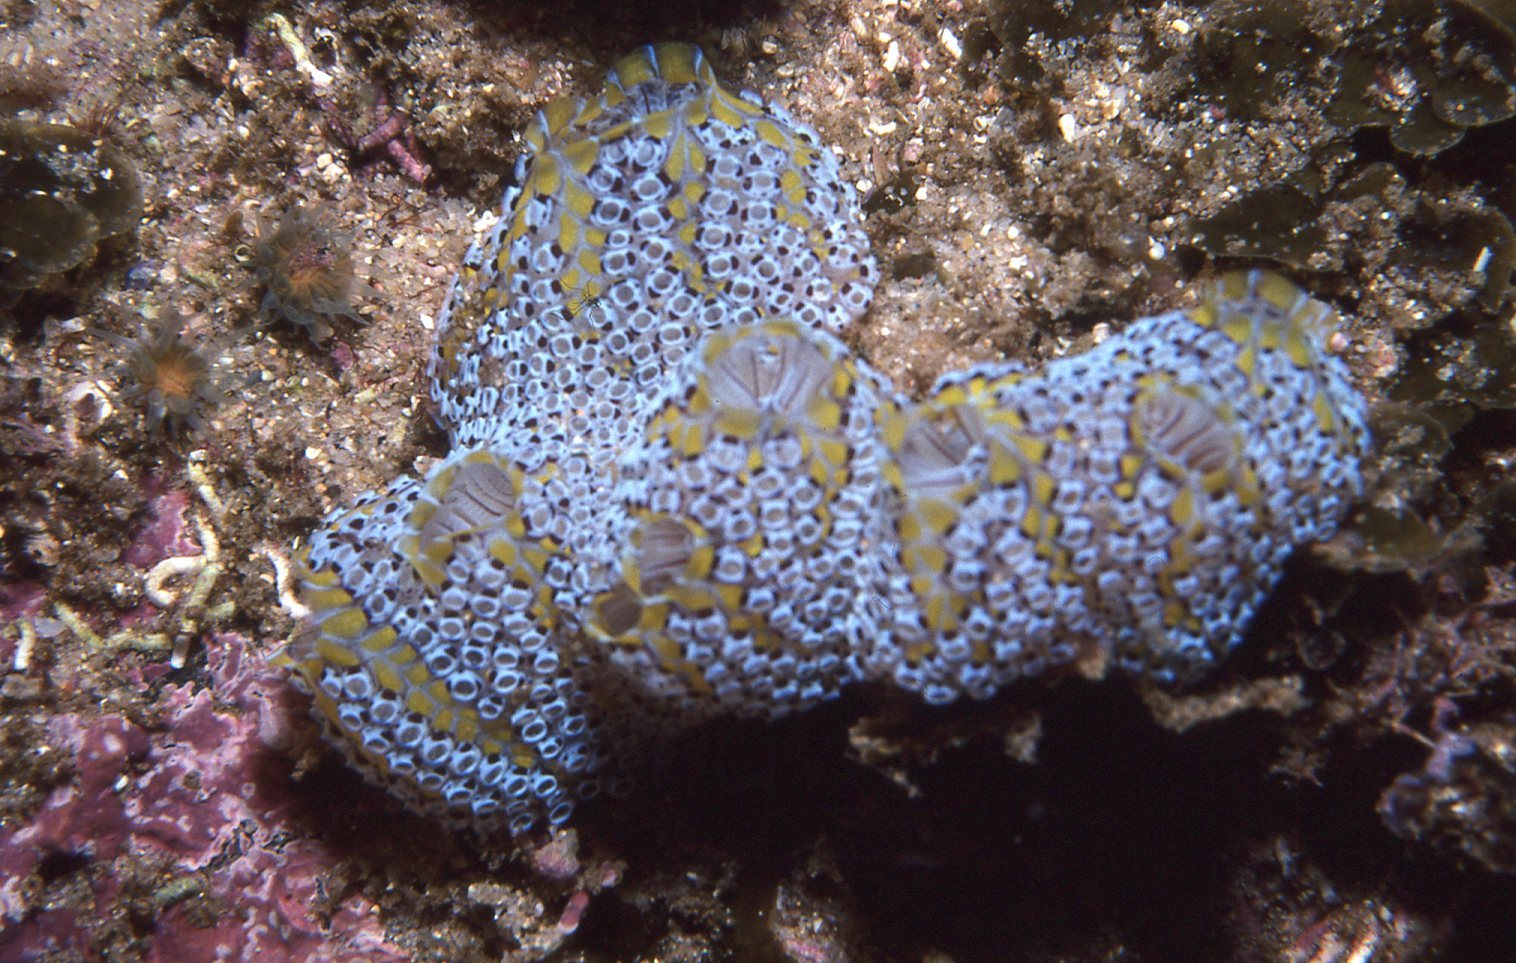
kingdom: Animalia
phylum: Chordata
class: Ascidiacea
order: Stolidobranchia
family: Styelidae
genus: Botrylloides
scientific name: Botrylloides magnicoecus
